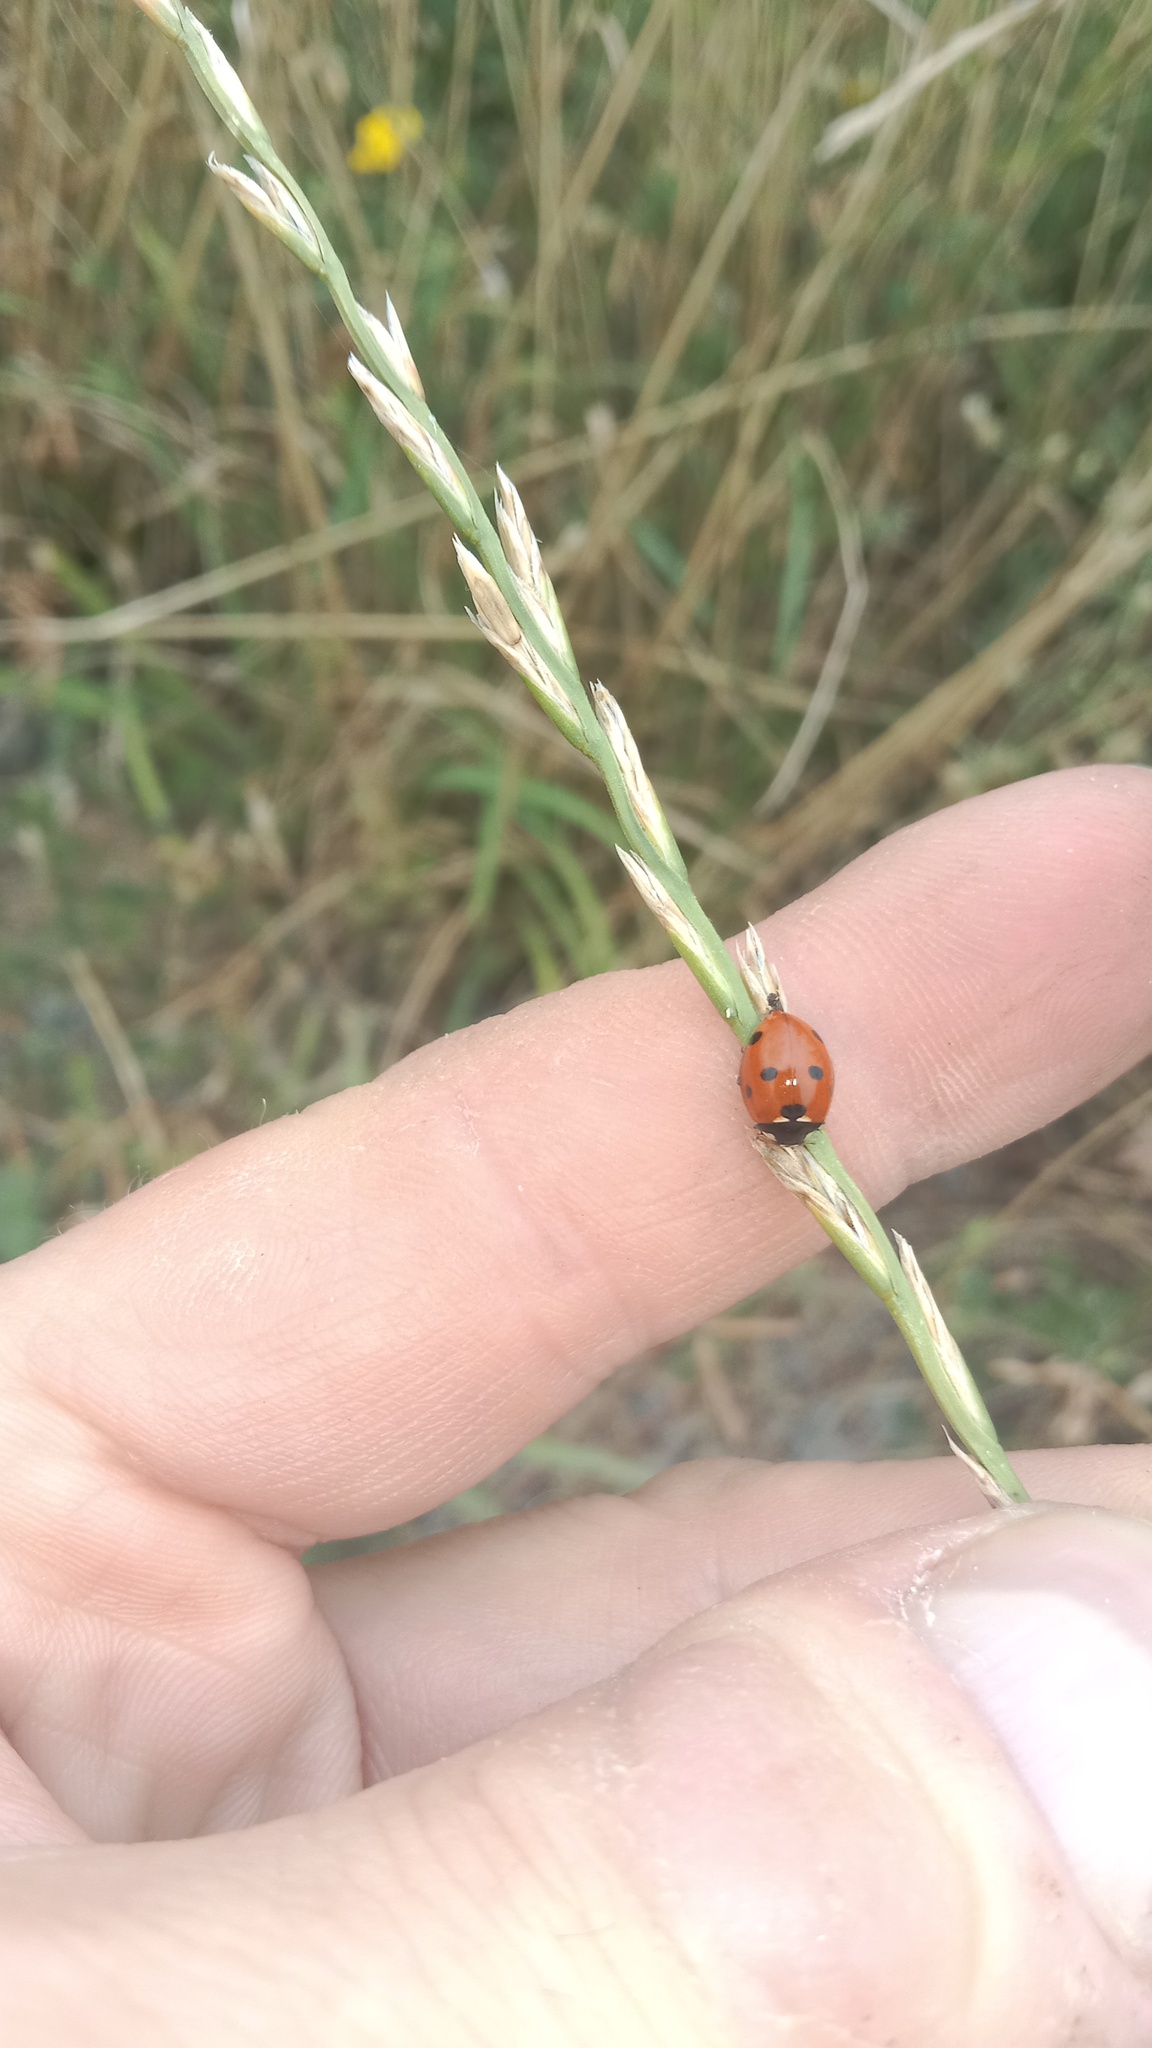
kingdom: Animalia
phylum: Arthropoda
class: Insecta
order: Coleoptera
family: Coccinellidae
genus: Coccinella
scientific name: Coccinella septempunctata
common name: Sevenspotted lady beetle
